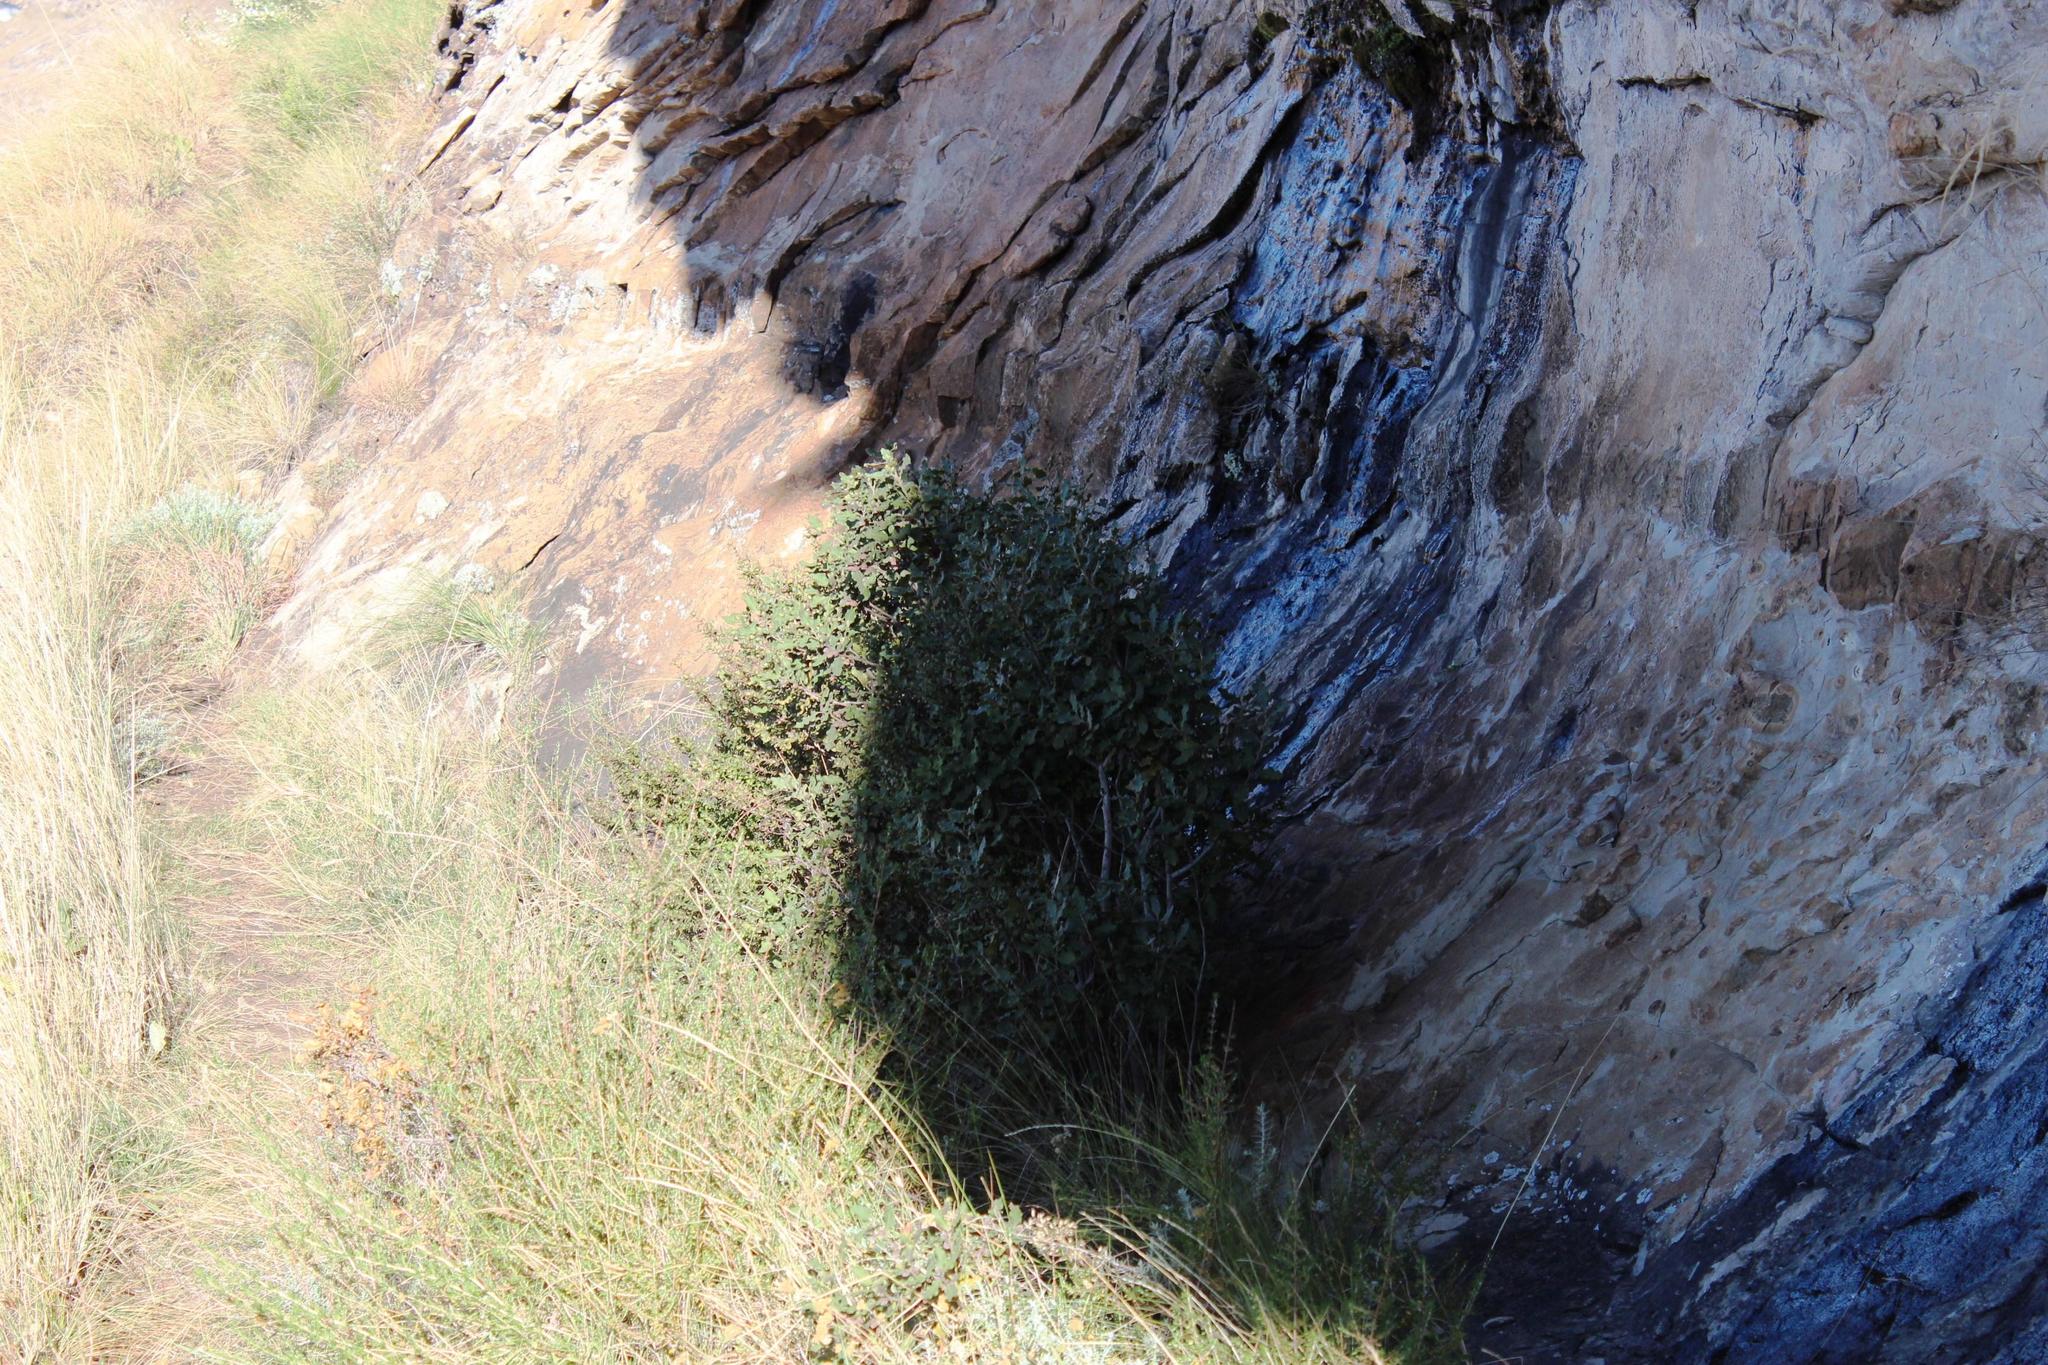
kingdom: Plantae
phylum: Tracheophyta
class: Magnoliopsida
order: Ericales
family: Ebenaceae
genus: Euclea
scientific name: Euclea crispa
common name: Blue guarri
